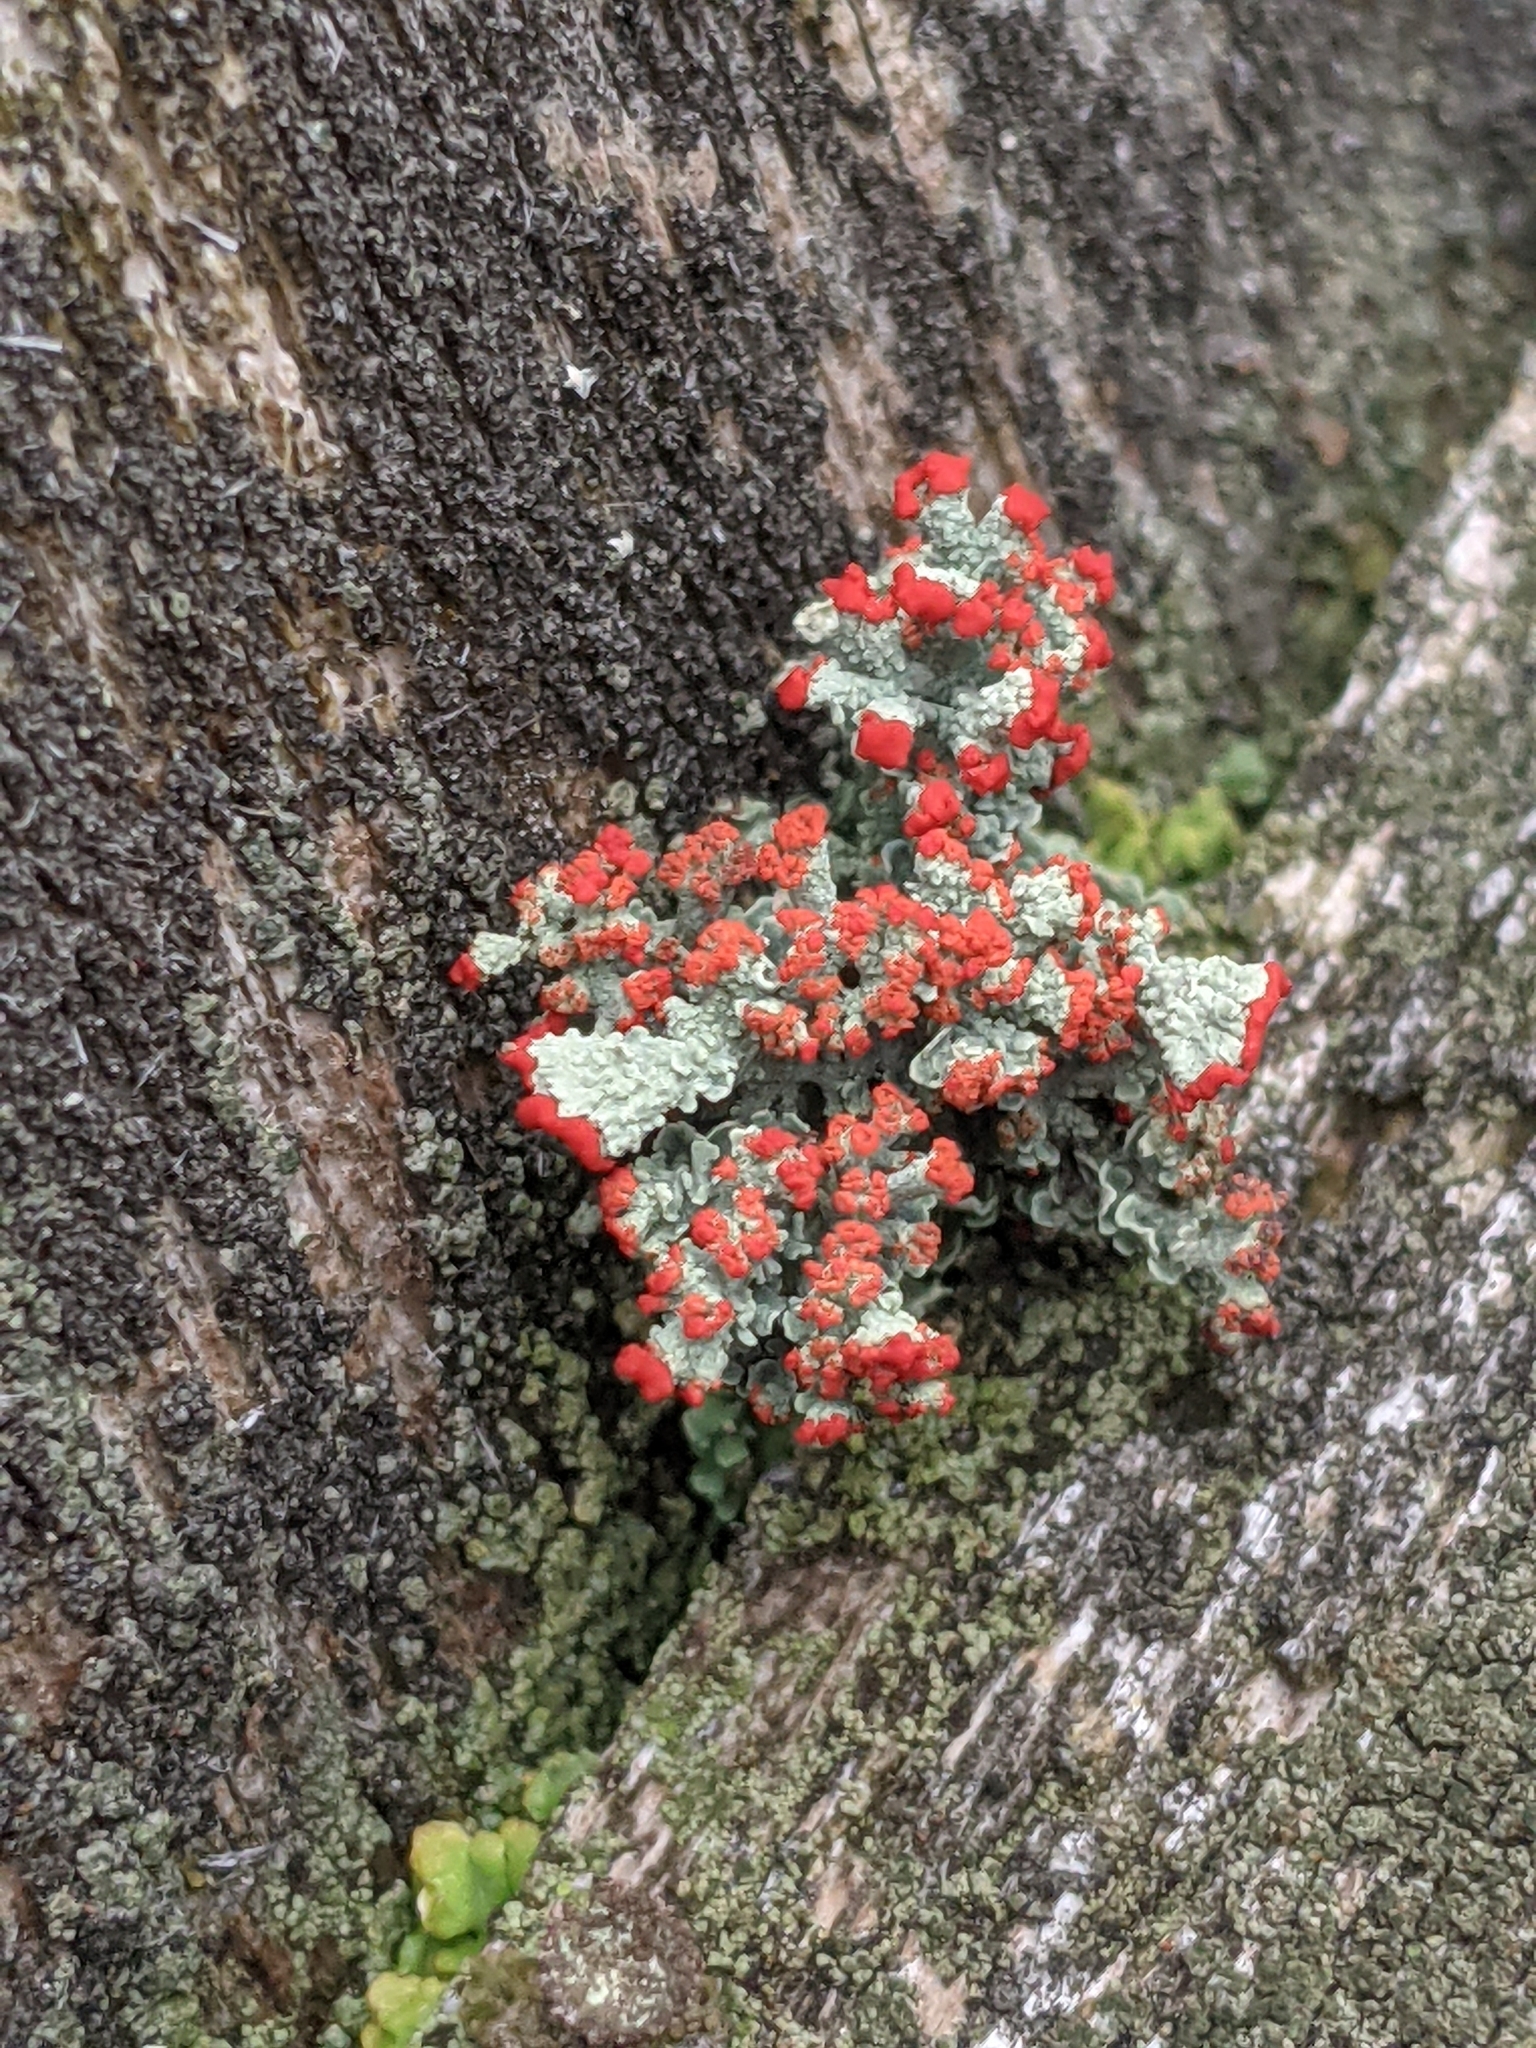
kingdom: Fungi
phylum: Ascomycota
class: Lecanoromycetes
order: Lecanorales
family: Cladoniaceae
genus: Cladonia
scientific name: Cladonia cristatella
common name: British soldier lichen
